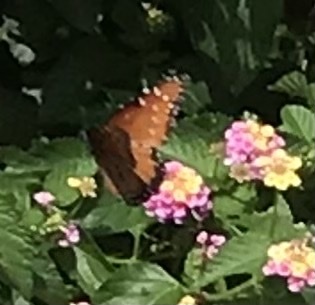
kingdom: Animalia
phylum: Arthropoda
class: Insecta
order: Lepidoptera
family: Nymphalidae
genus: Danaus
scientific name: Danaus gilippus
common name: Queen
